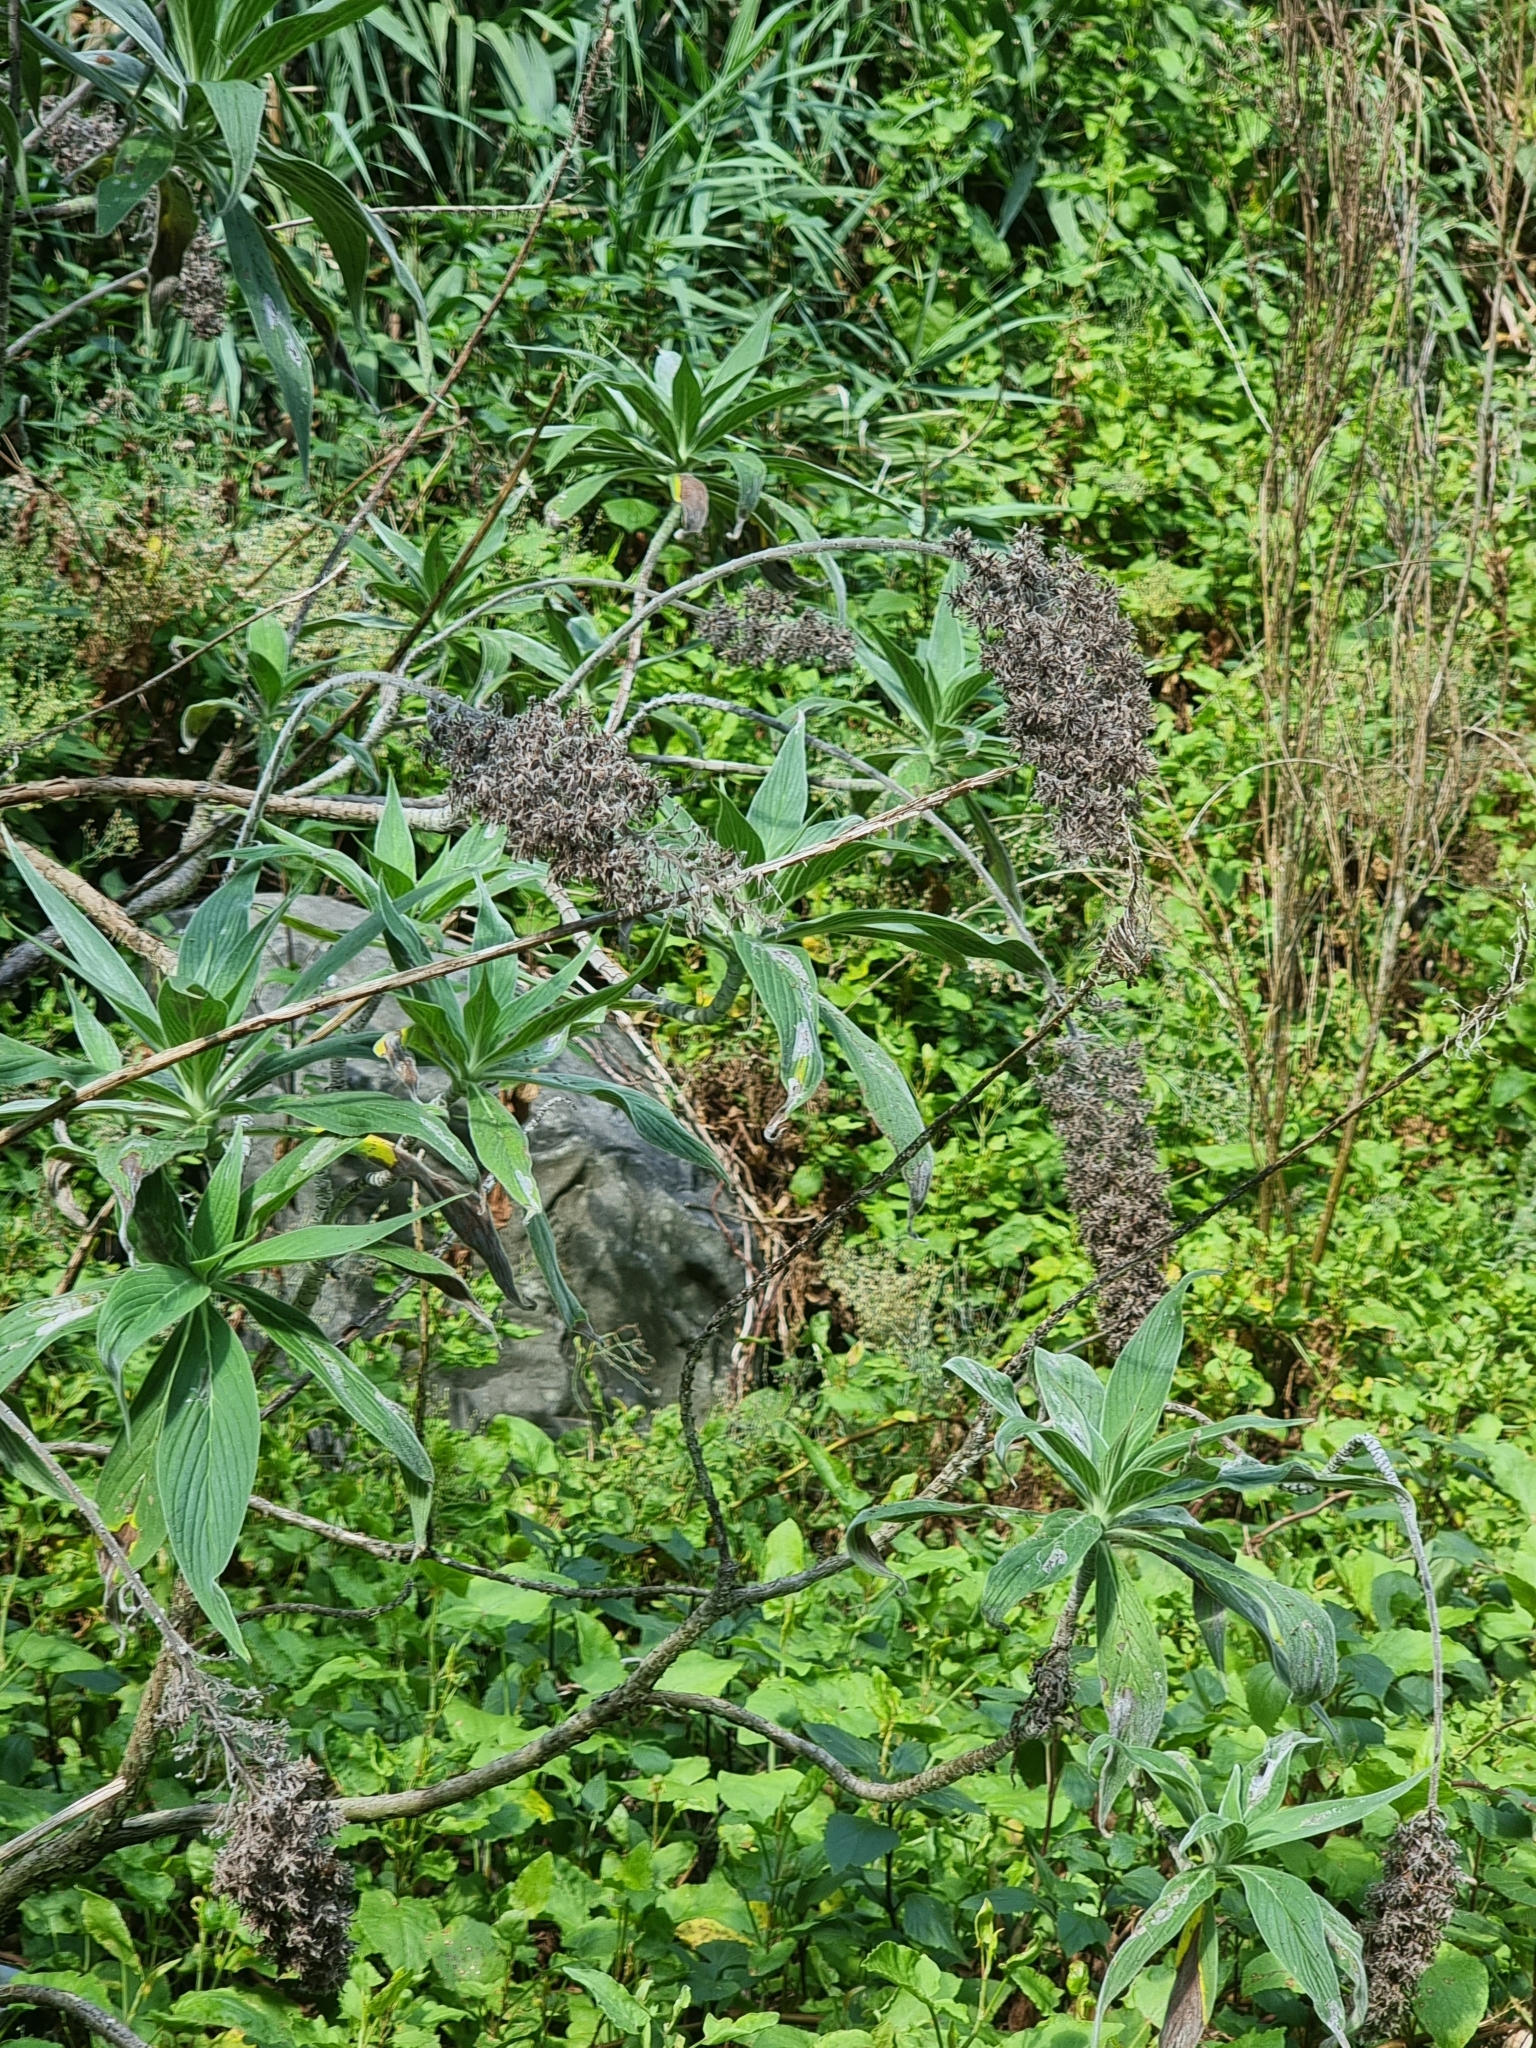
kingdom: Plantae
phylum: Tracheophyta
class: Magnoliopsida
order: Boraginales
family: Boraginaceae
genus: Echium
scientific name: Echium candicans
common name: Pride of madeira
